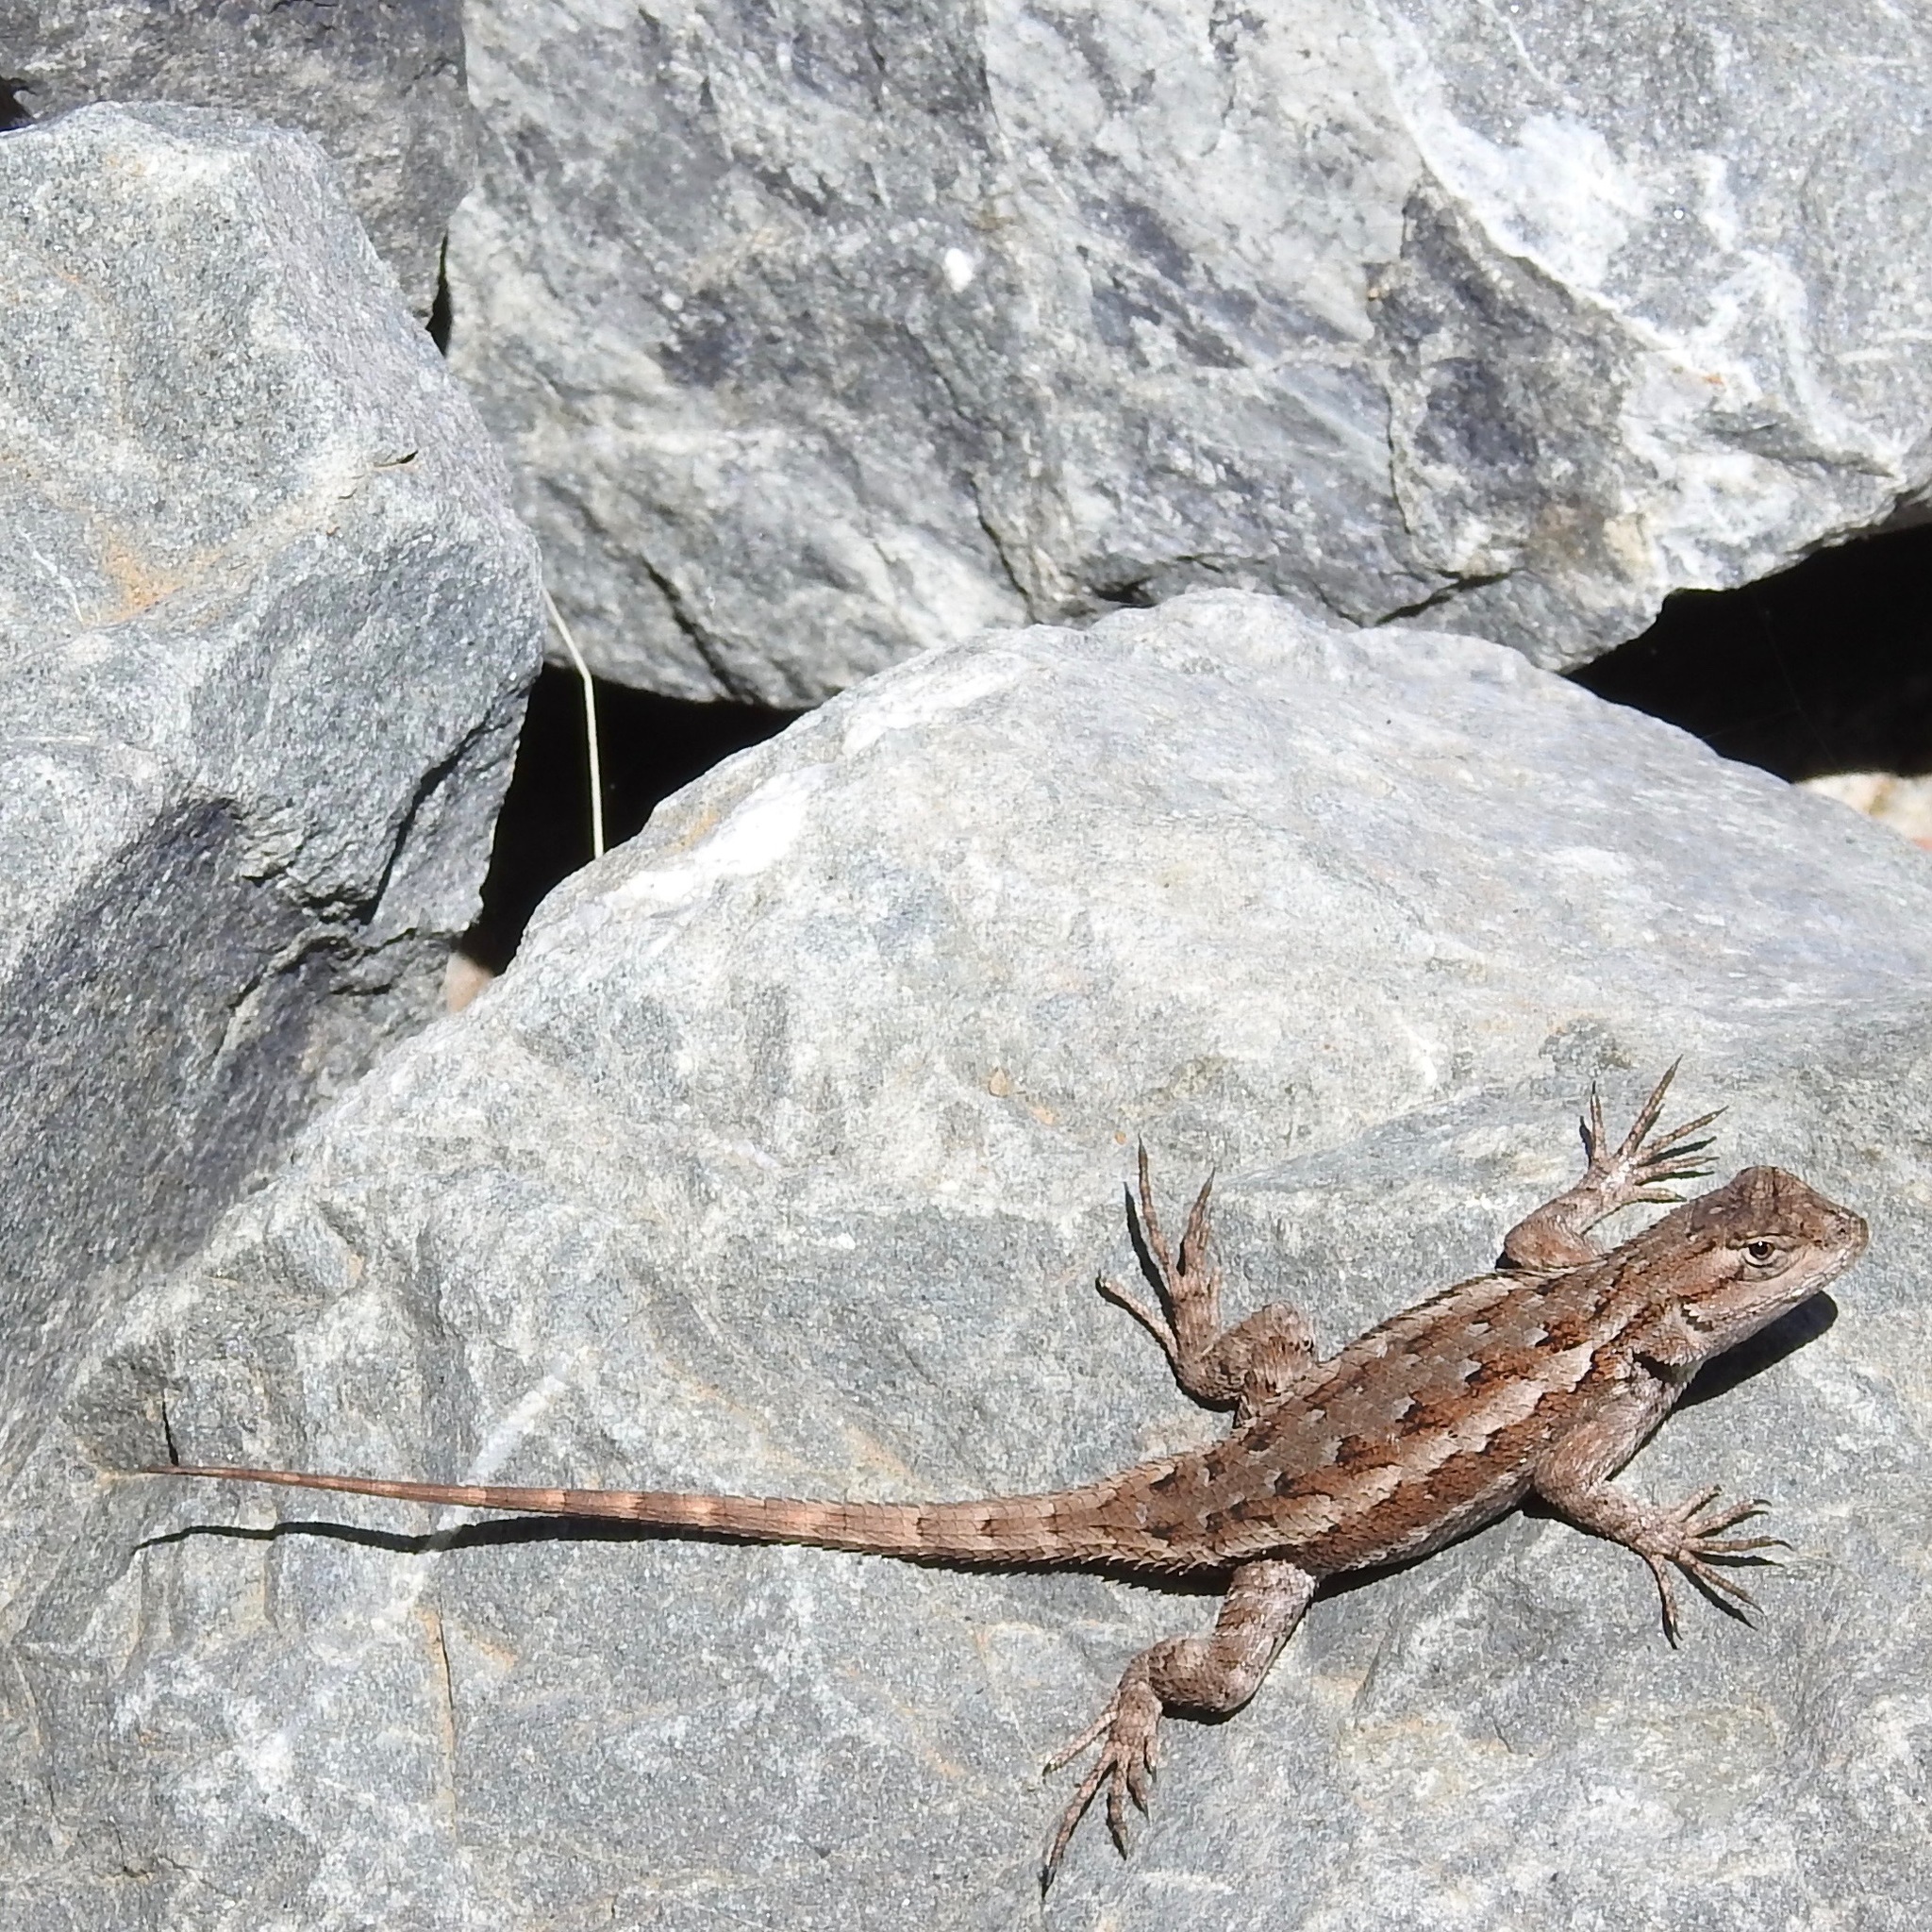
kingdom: Animalia
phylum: Chordata
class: Squamata
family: Phrynosomatidae
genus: Sceloporus
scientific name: Sceloporus occidentalis
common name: Western fence lizard
